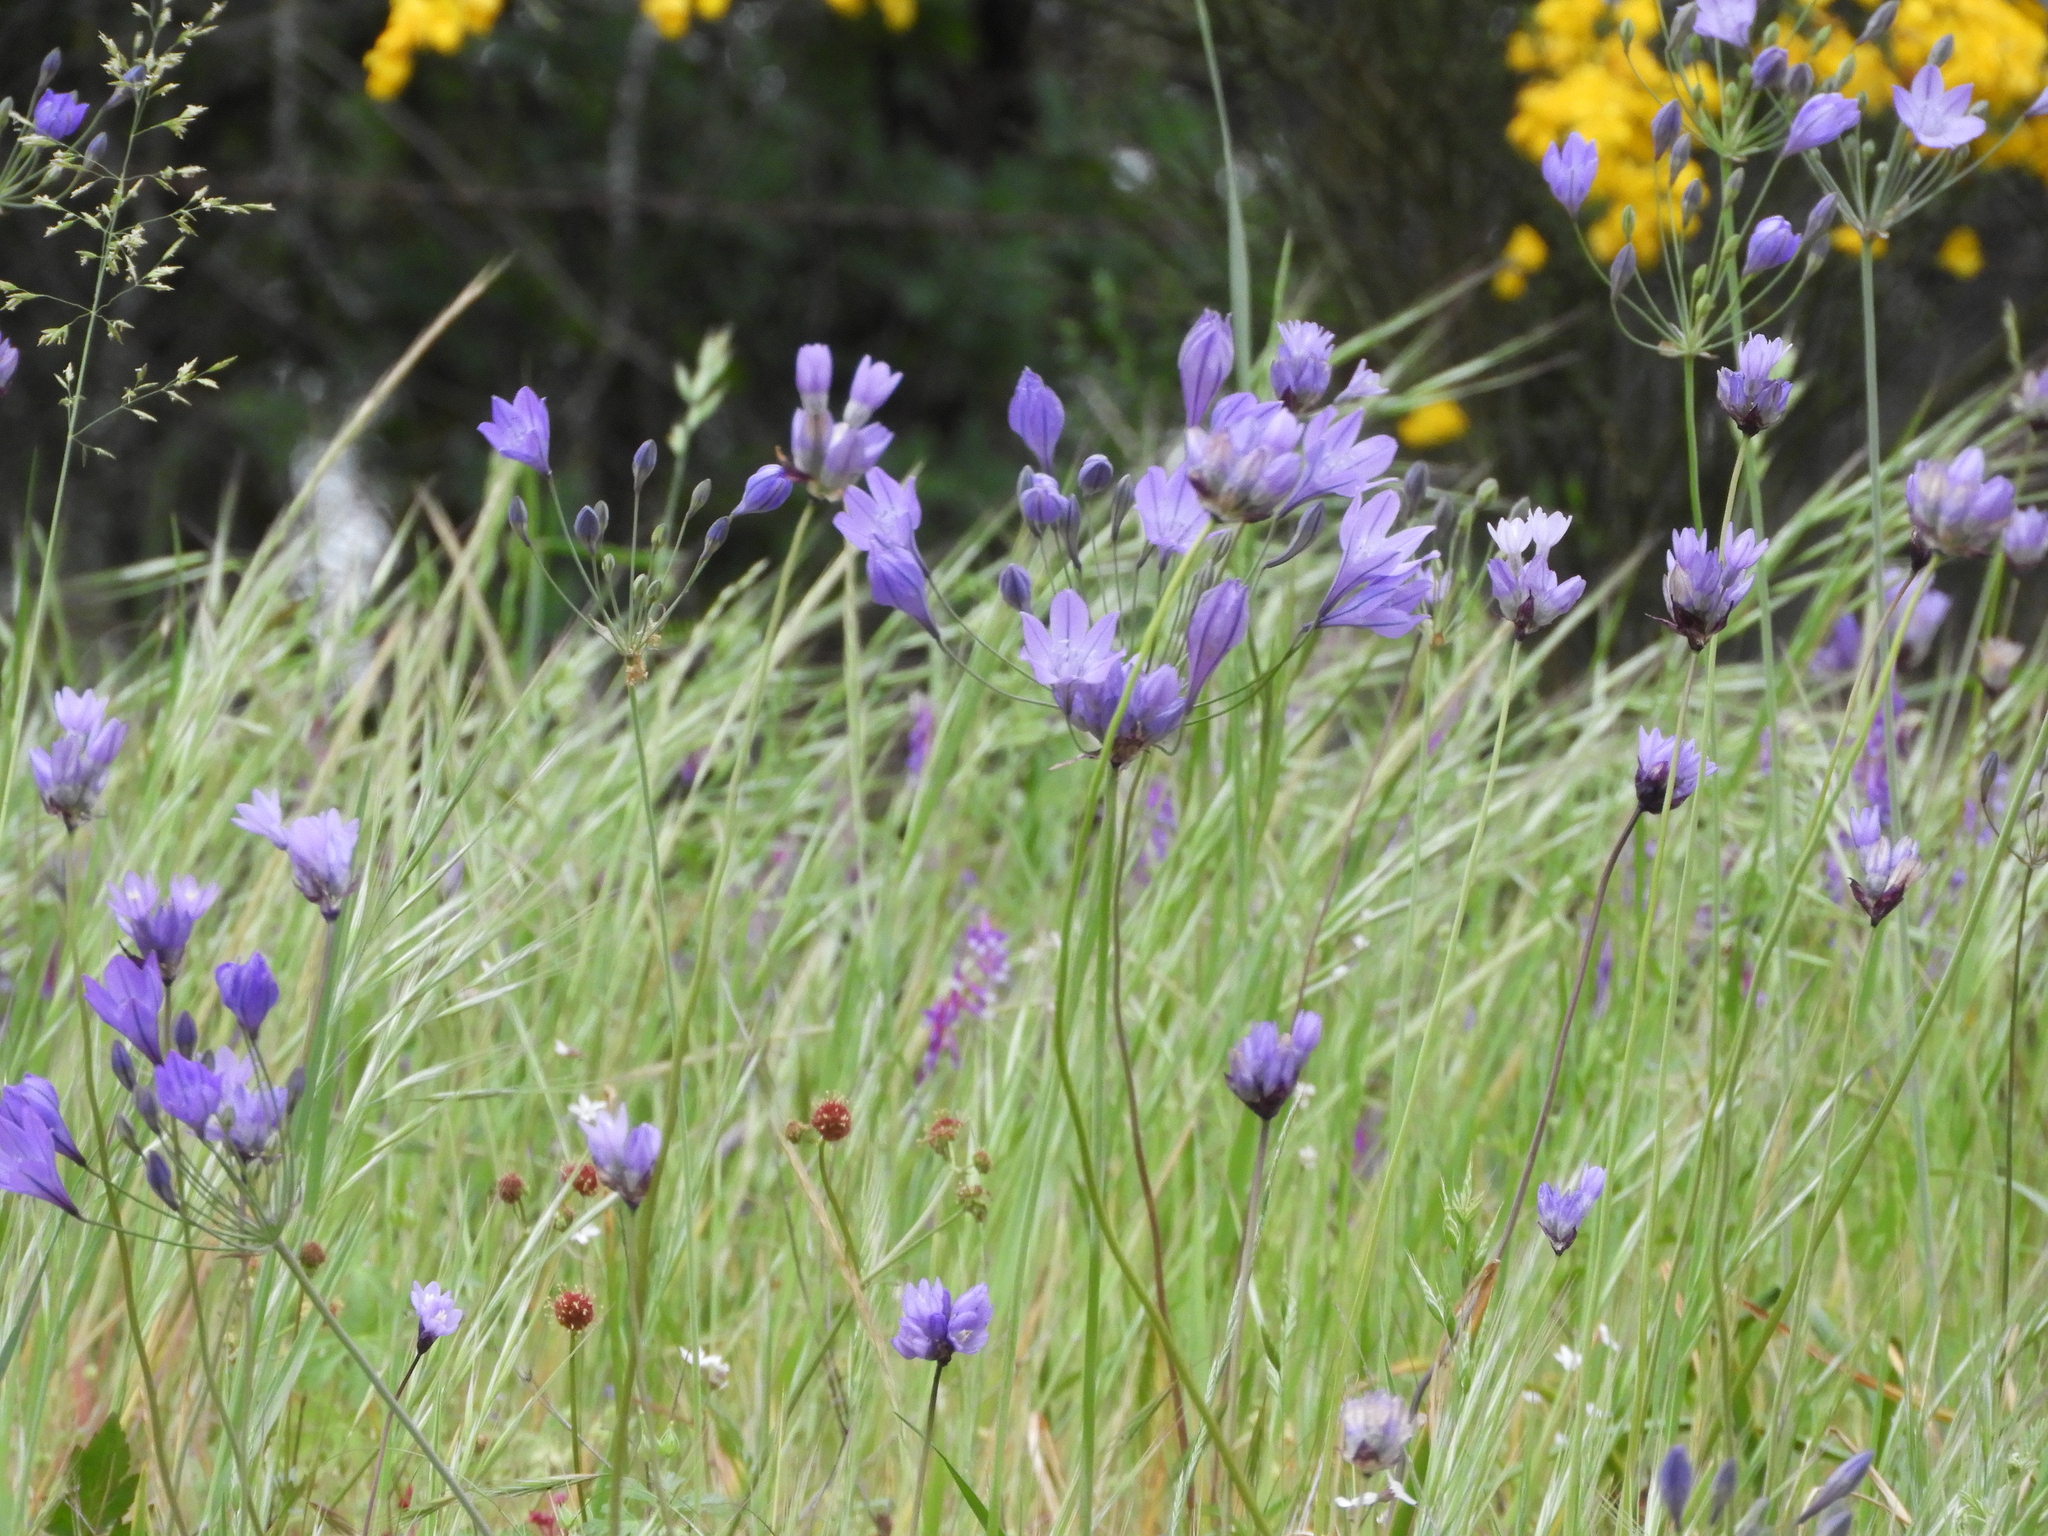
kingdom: Plantae
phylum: Tracheophyta
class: Liliopsida
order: Asparagales
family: Asparagaceae
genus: Triteleia
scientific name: Triteleia laxa
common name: Triplet-lily
